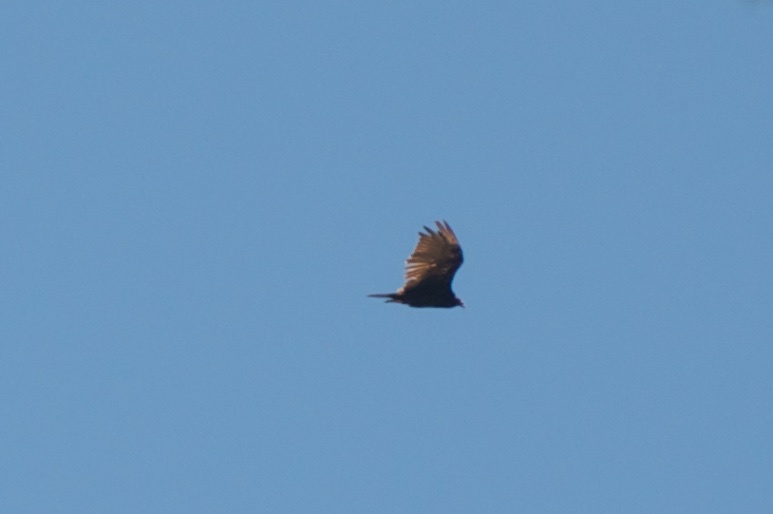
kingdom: Animalia
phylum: Chordata
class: Aves
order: Accipitriformes
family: Cathartidae
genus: Cathartes
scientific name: Cathartes aura
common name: Turkey vulture
